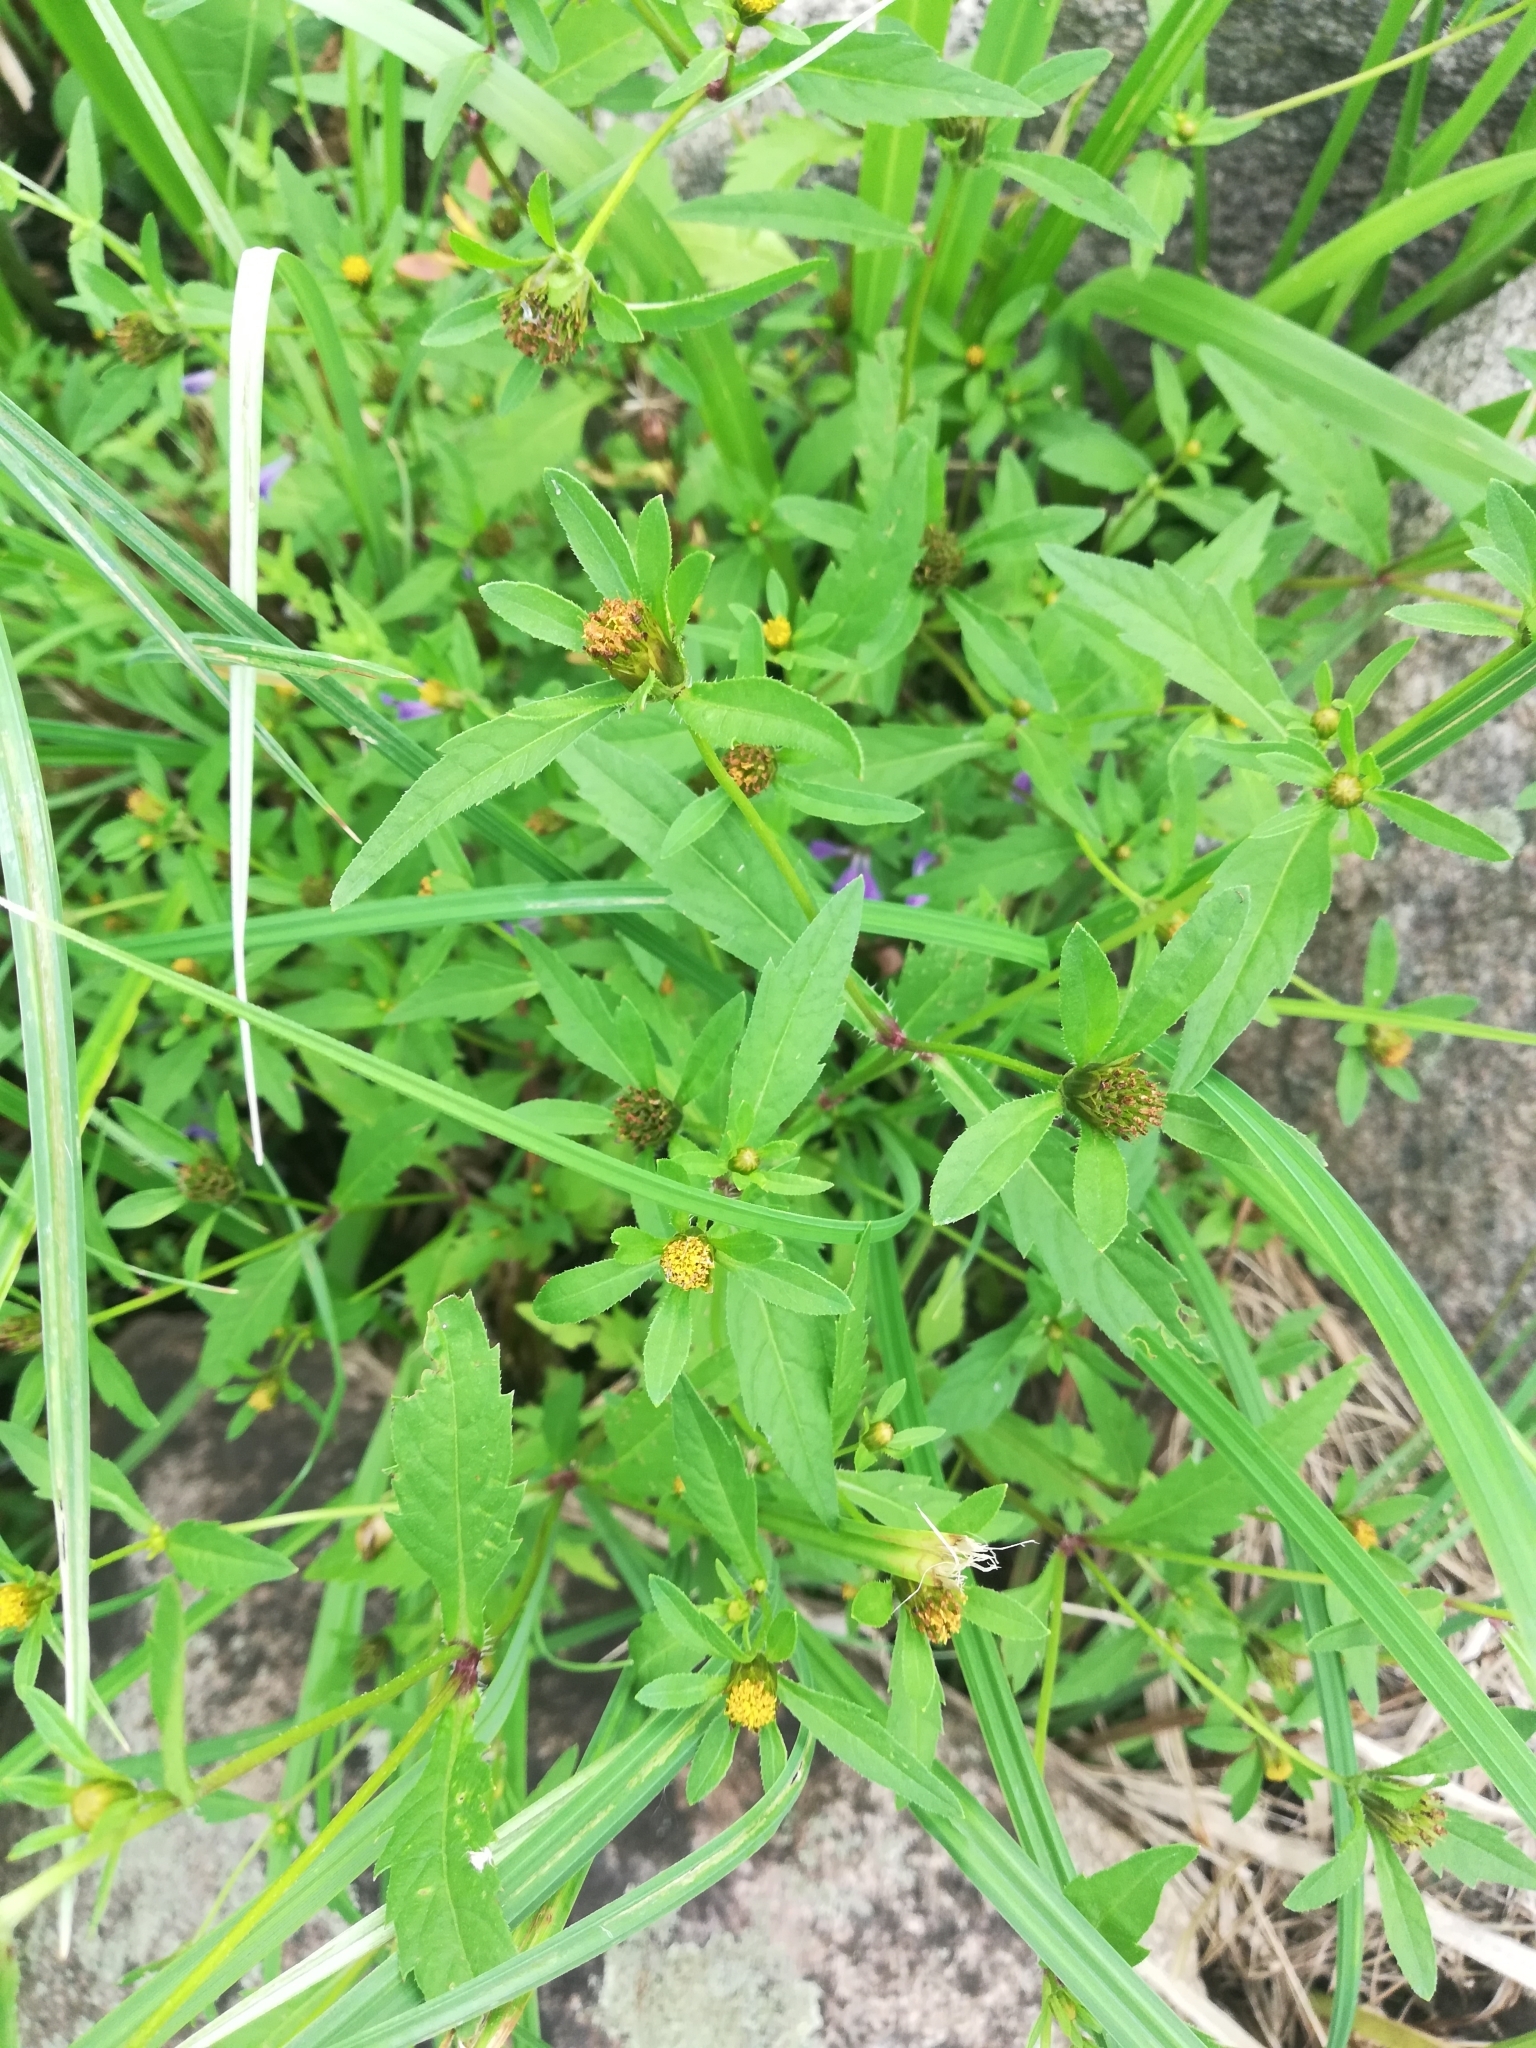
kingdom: Plantae
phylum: Tracheophyta
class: Magnoliopsida
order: Asterales
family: Asteraceae
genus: Bidens
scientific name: Bidens tripartita
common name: Trifid bur-marigold
